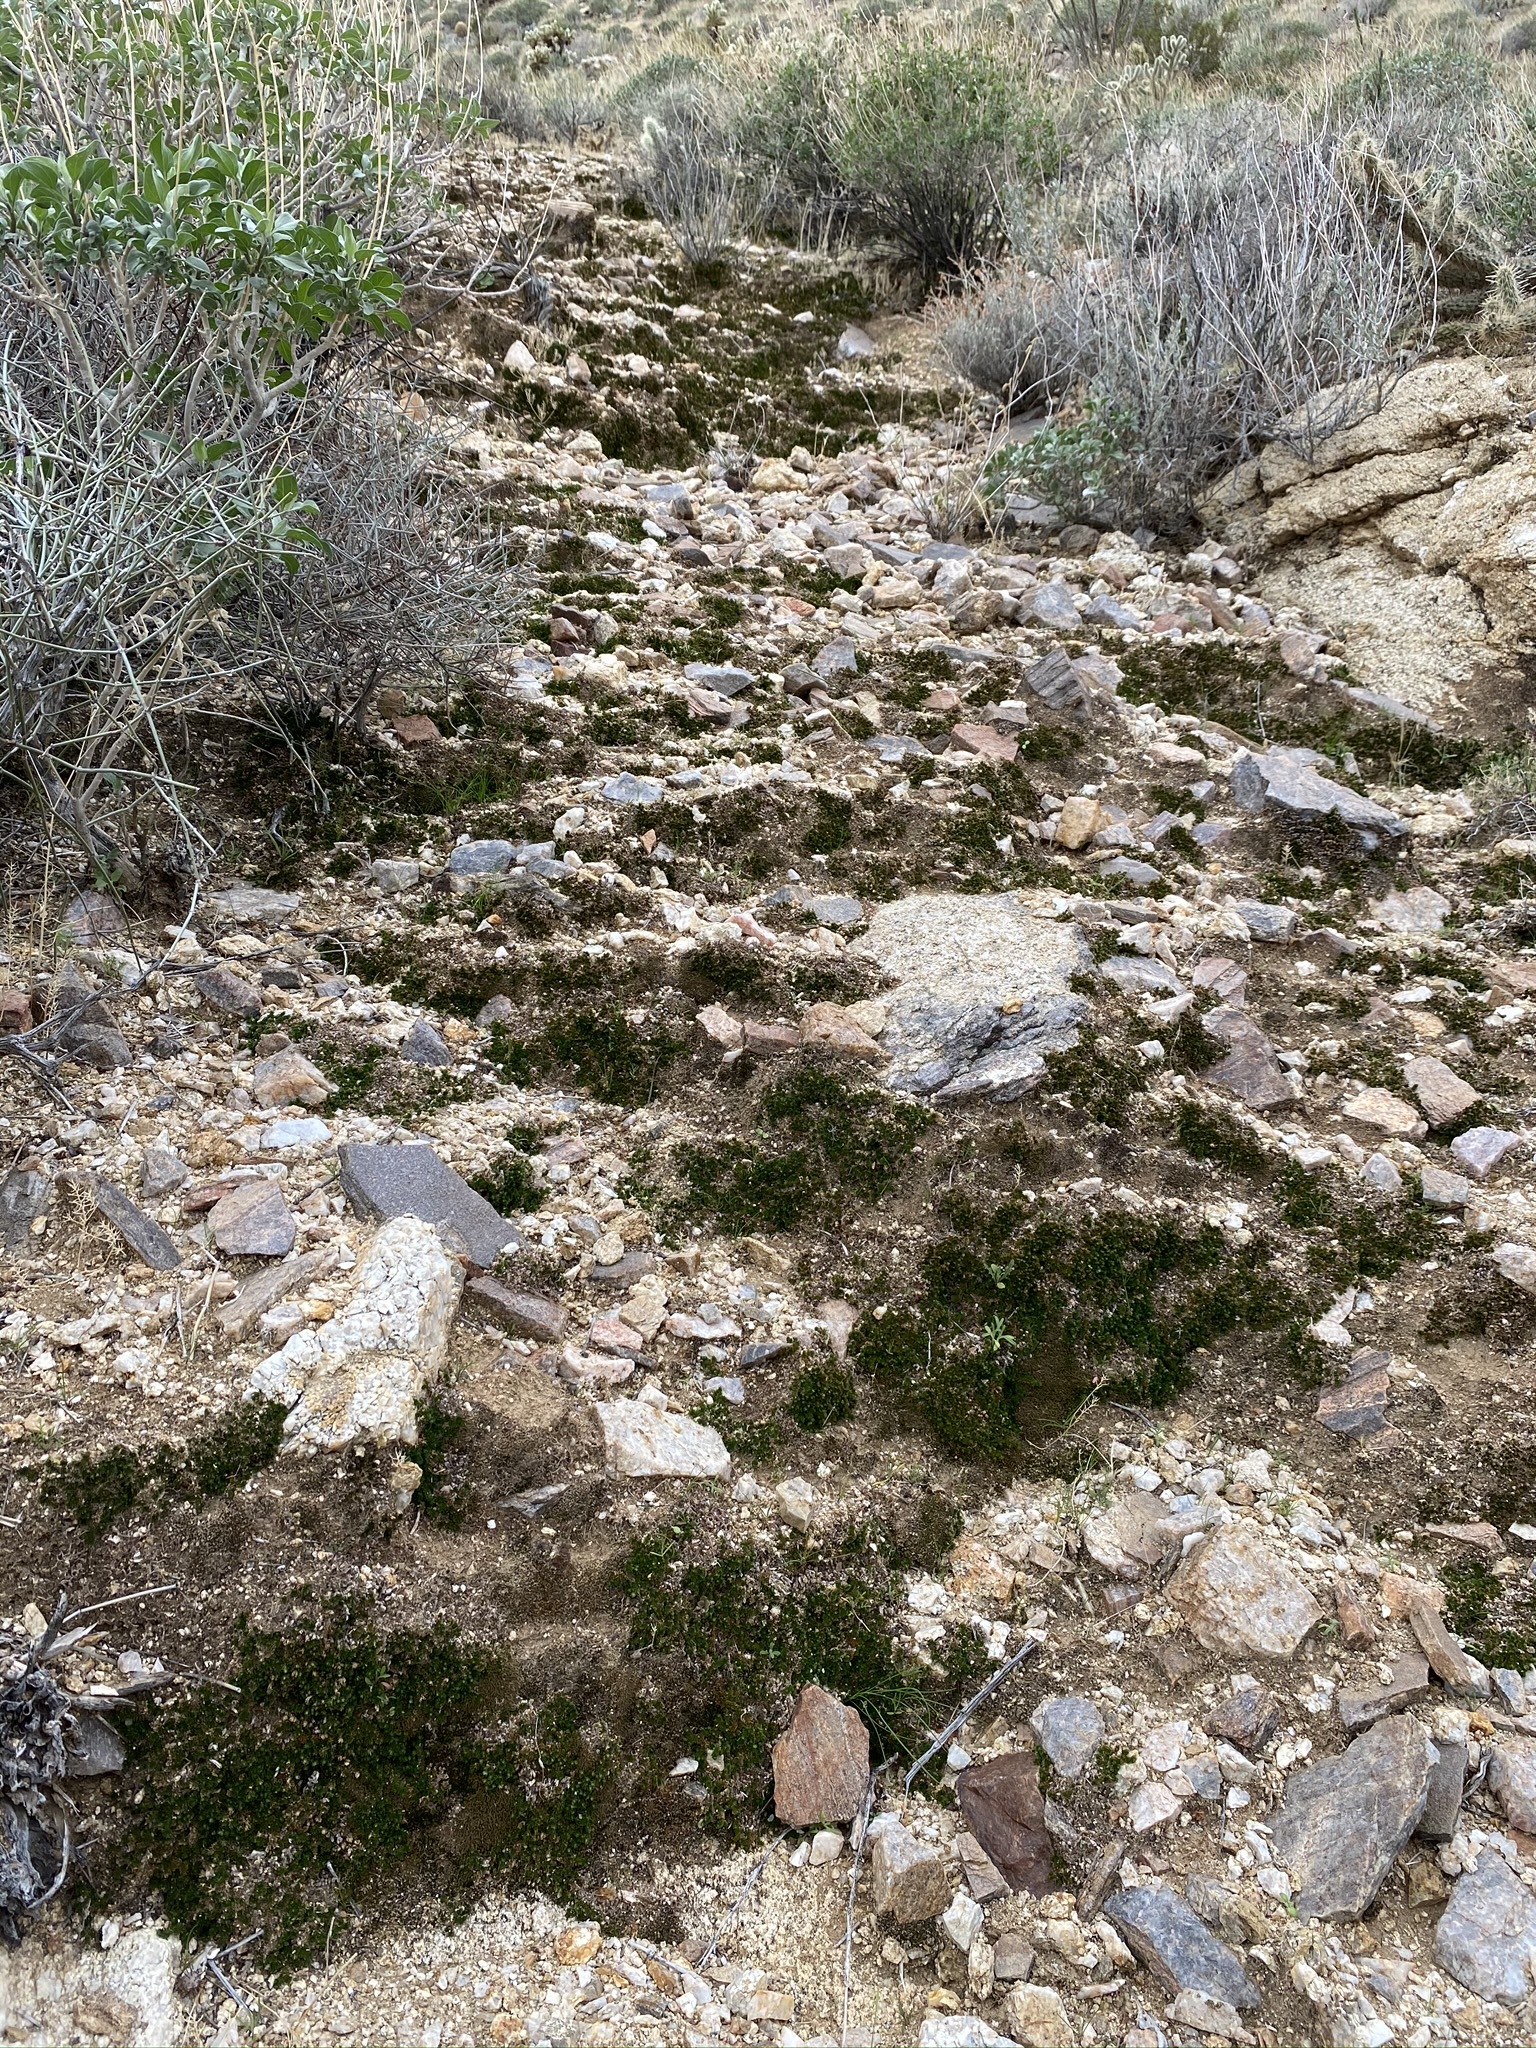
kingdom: Plantae
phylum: Tracheophyta
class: Lycopodiopsida
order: Selaginellales
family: Selaginellaceae
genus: Selaginella
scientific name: Selaginella eremophila
